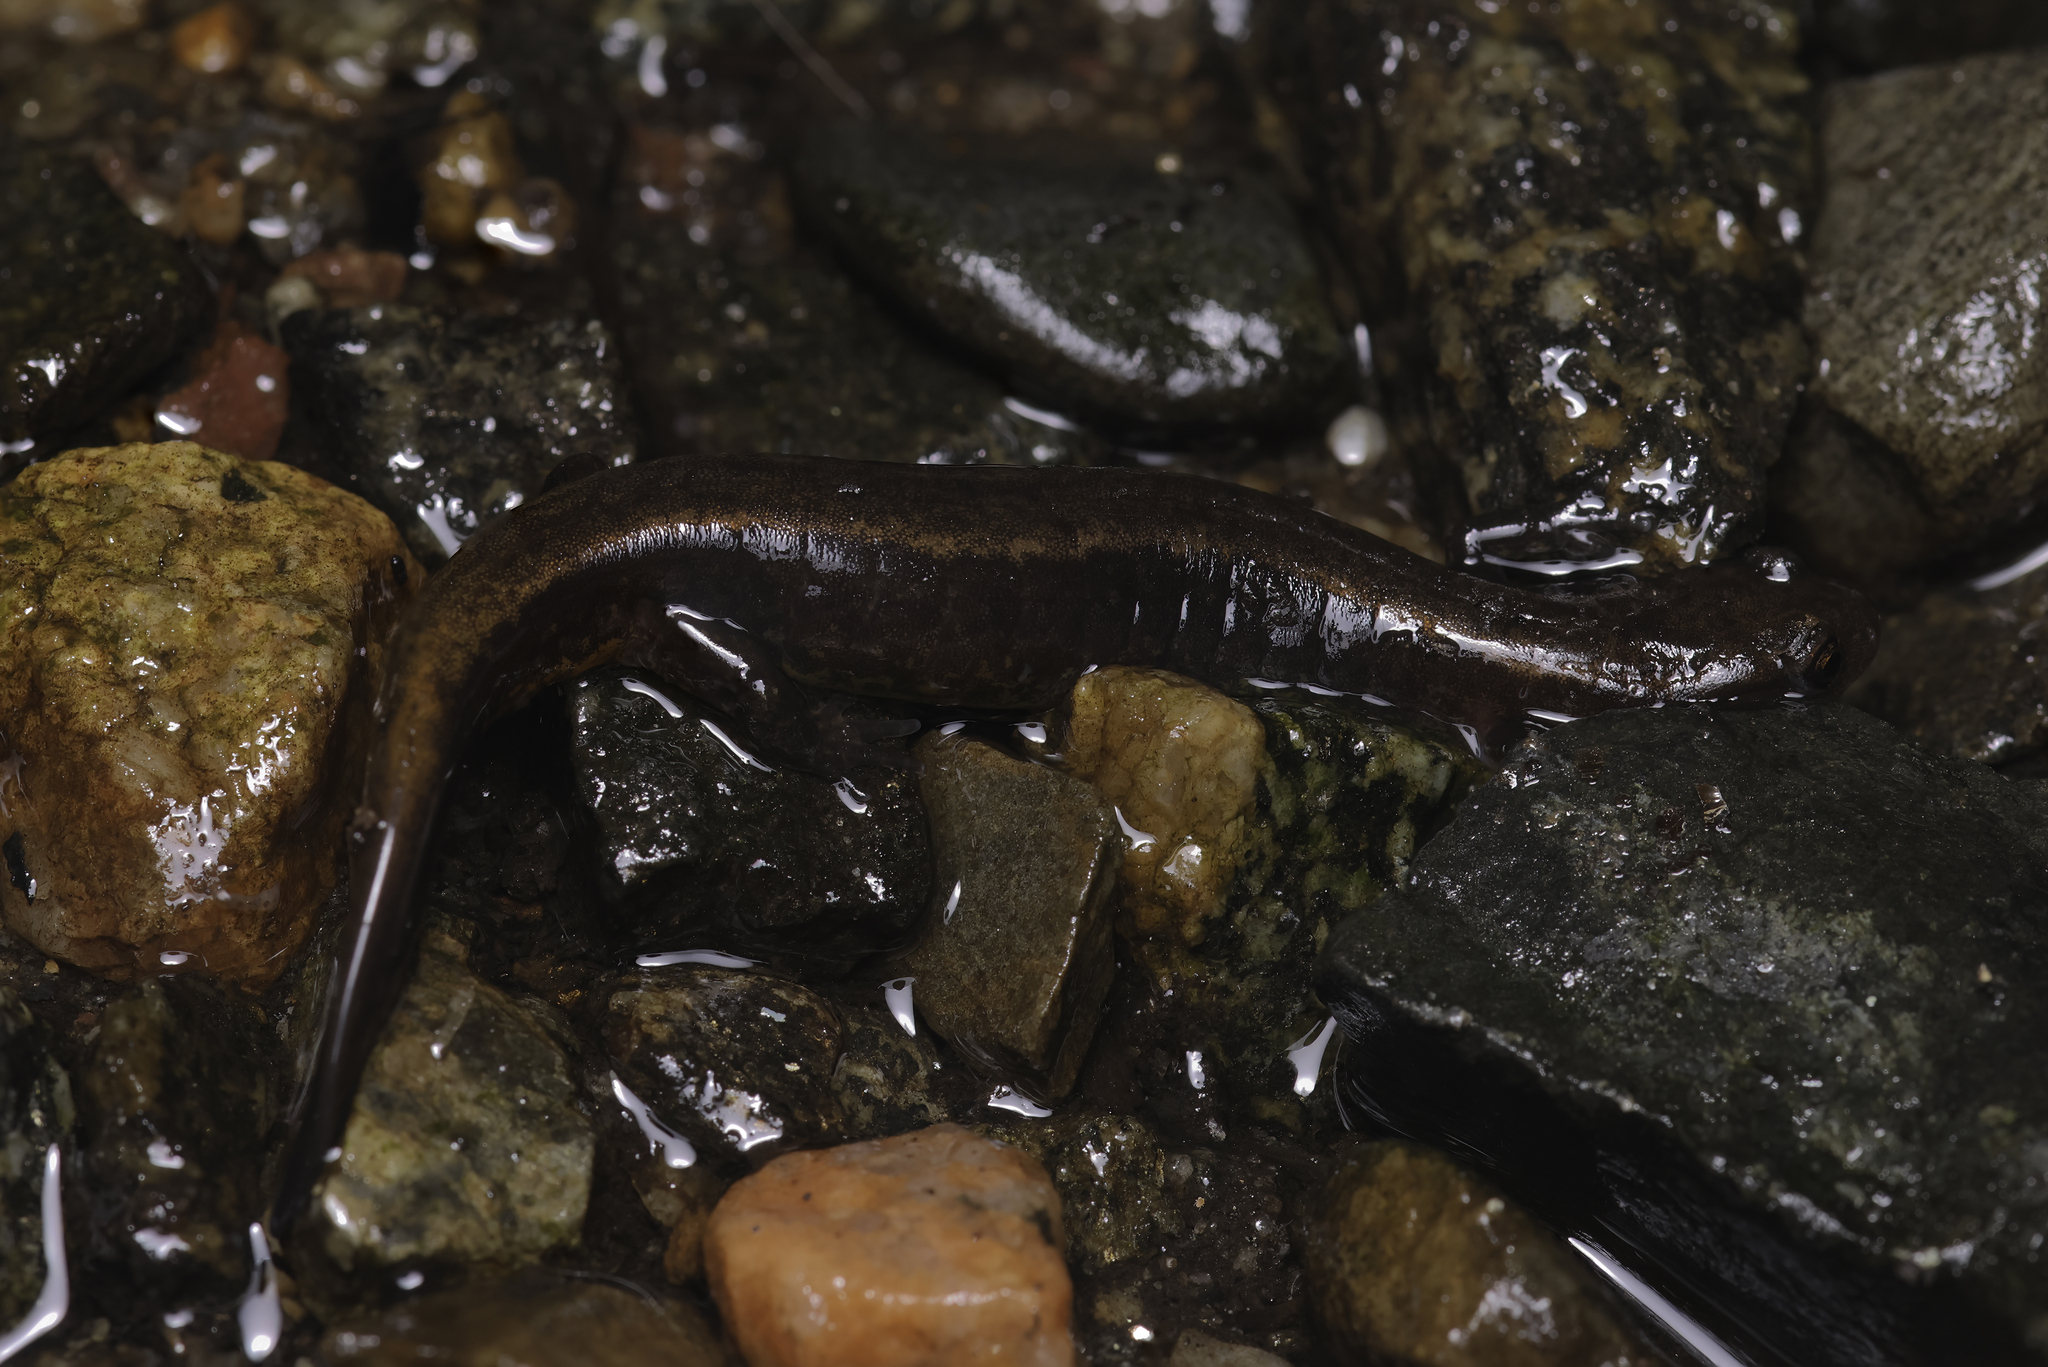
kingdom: Animalia
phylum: Chordata
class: Amphibia
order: Caudata
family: Plethodontidae
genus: Eurycea
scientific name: Eurycea bislineata
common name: Northern two-lined salamander
